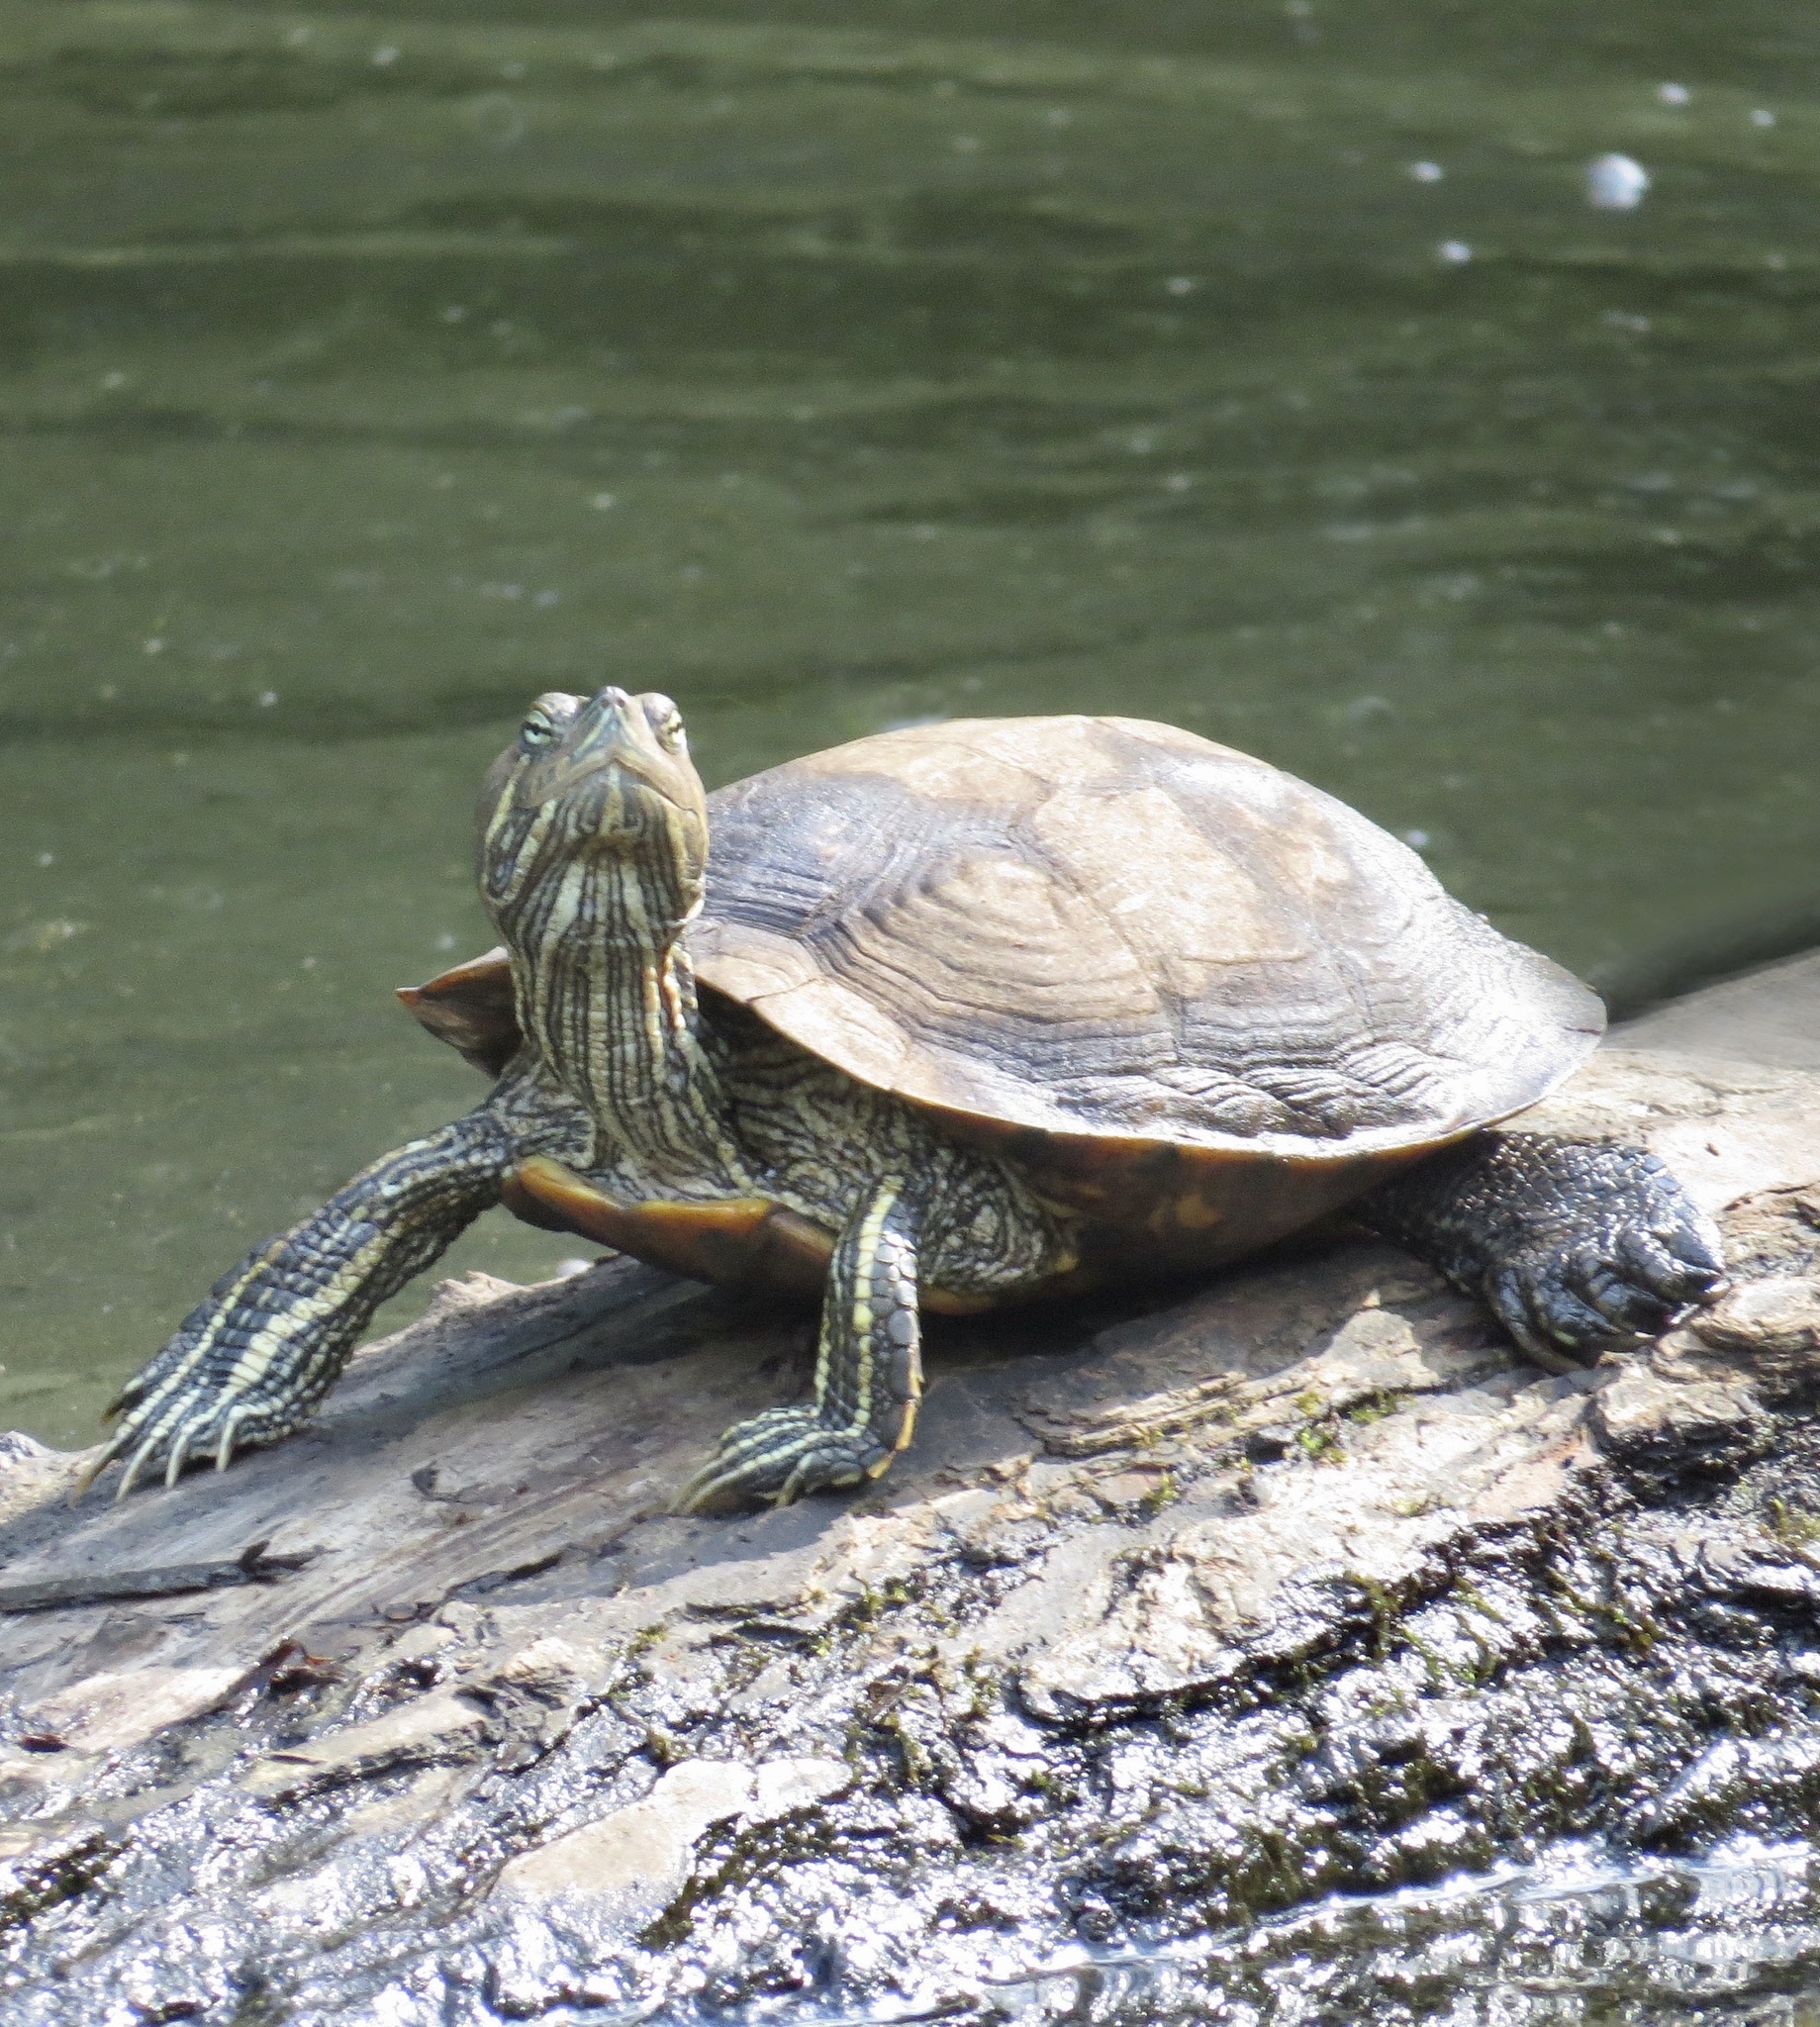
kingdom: Animalia
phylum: Chordata
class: Testudines
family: Emydidae
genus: Trachemys
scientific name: Trachemys scripta
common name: Slider
